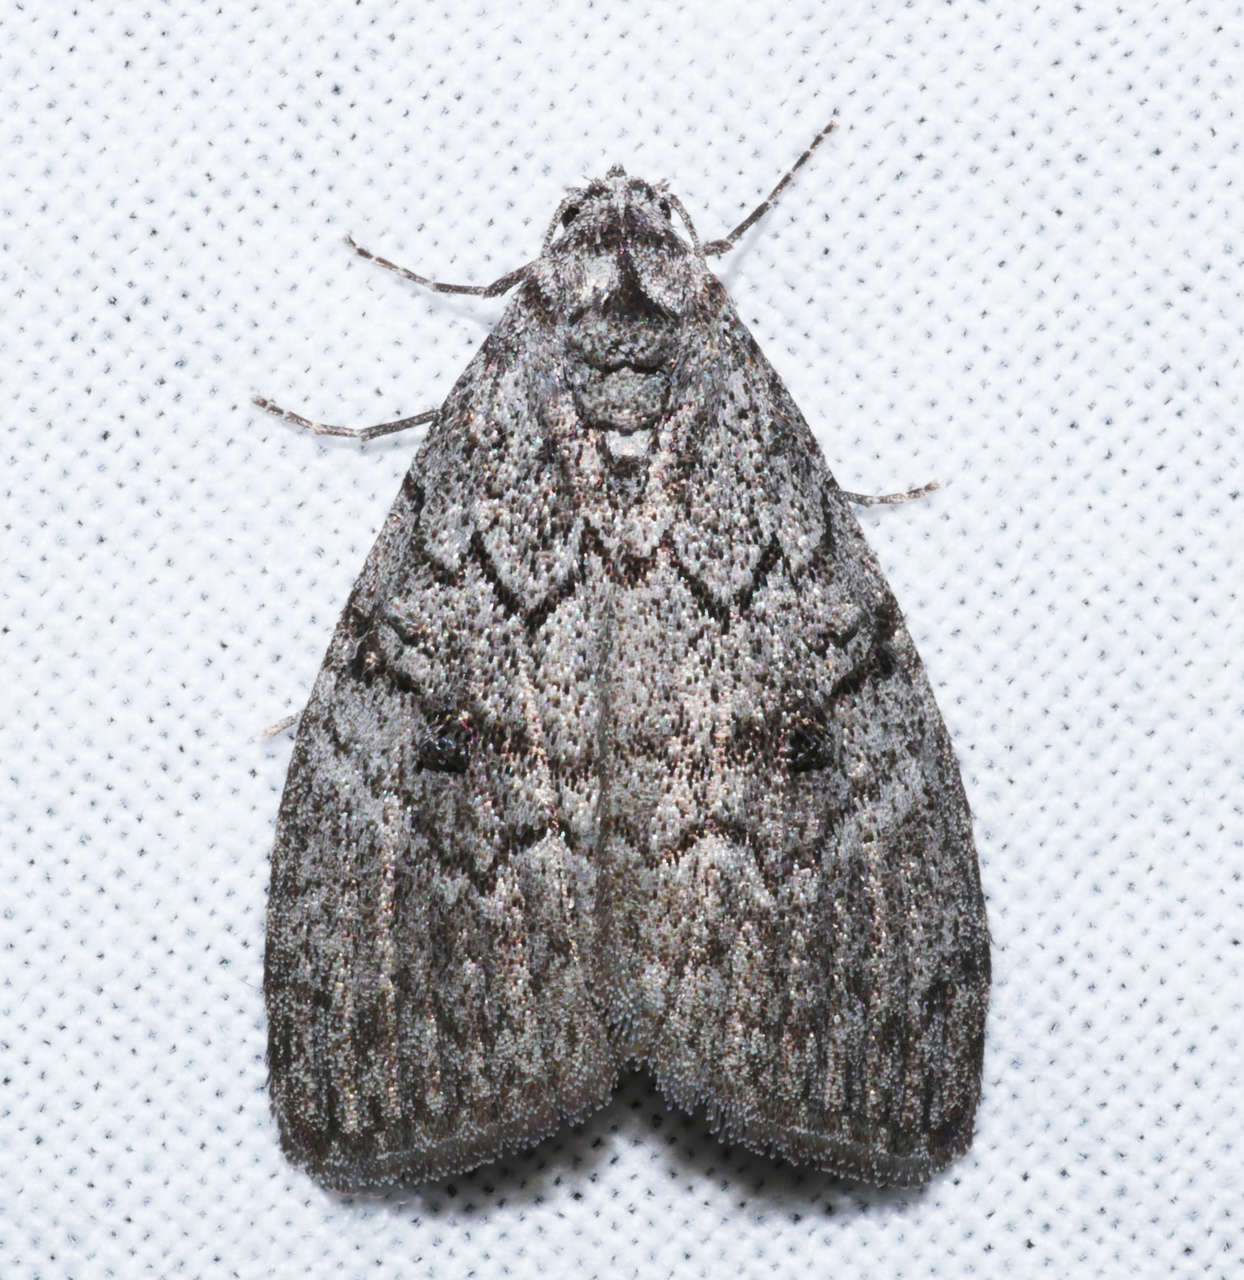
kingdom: Animalia
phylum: Arthropoda
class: Insecta
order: Lepidoptera
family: Nolidae
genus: Uraba
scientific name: Uraba lugens
